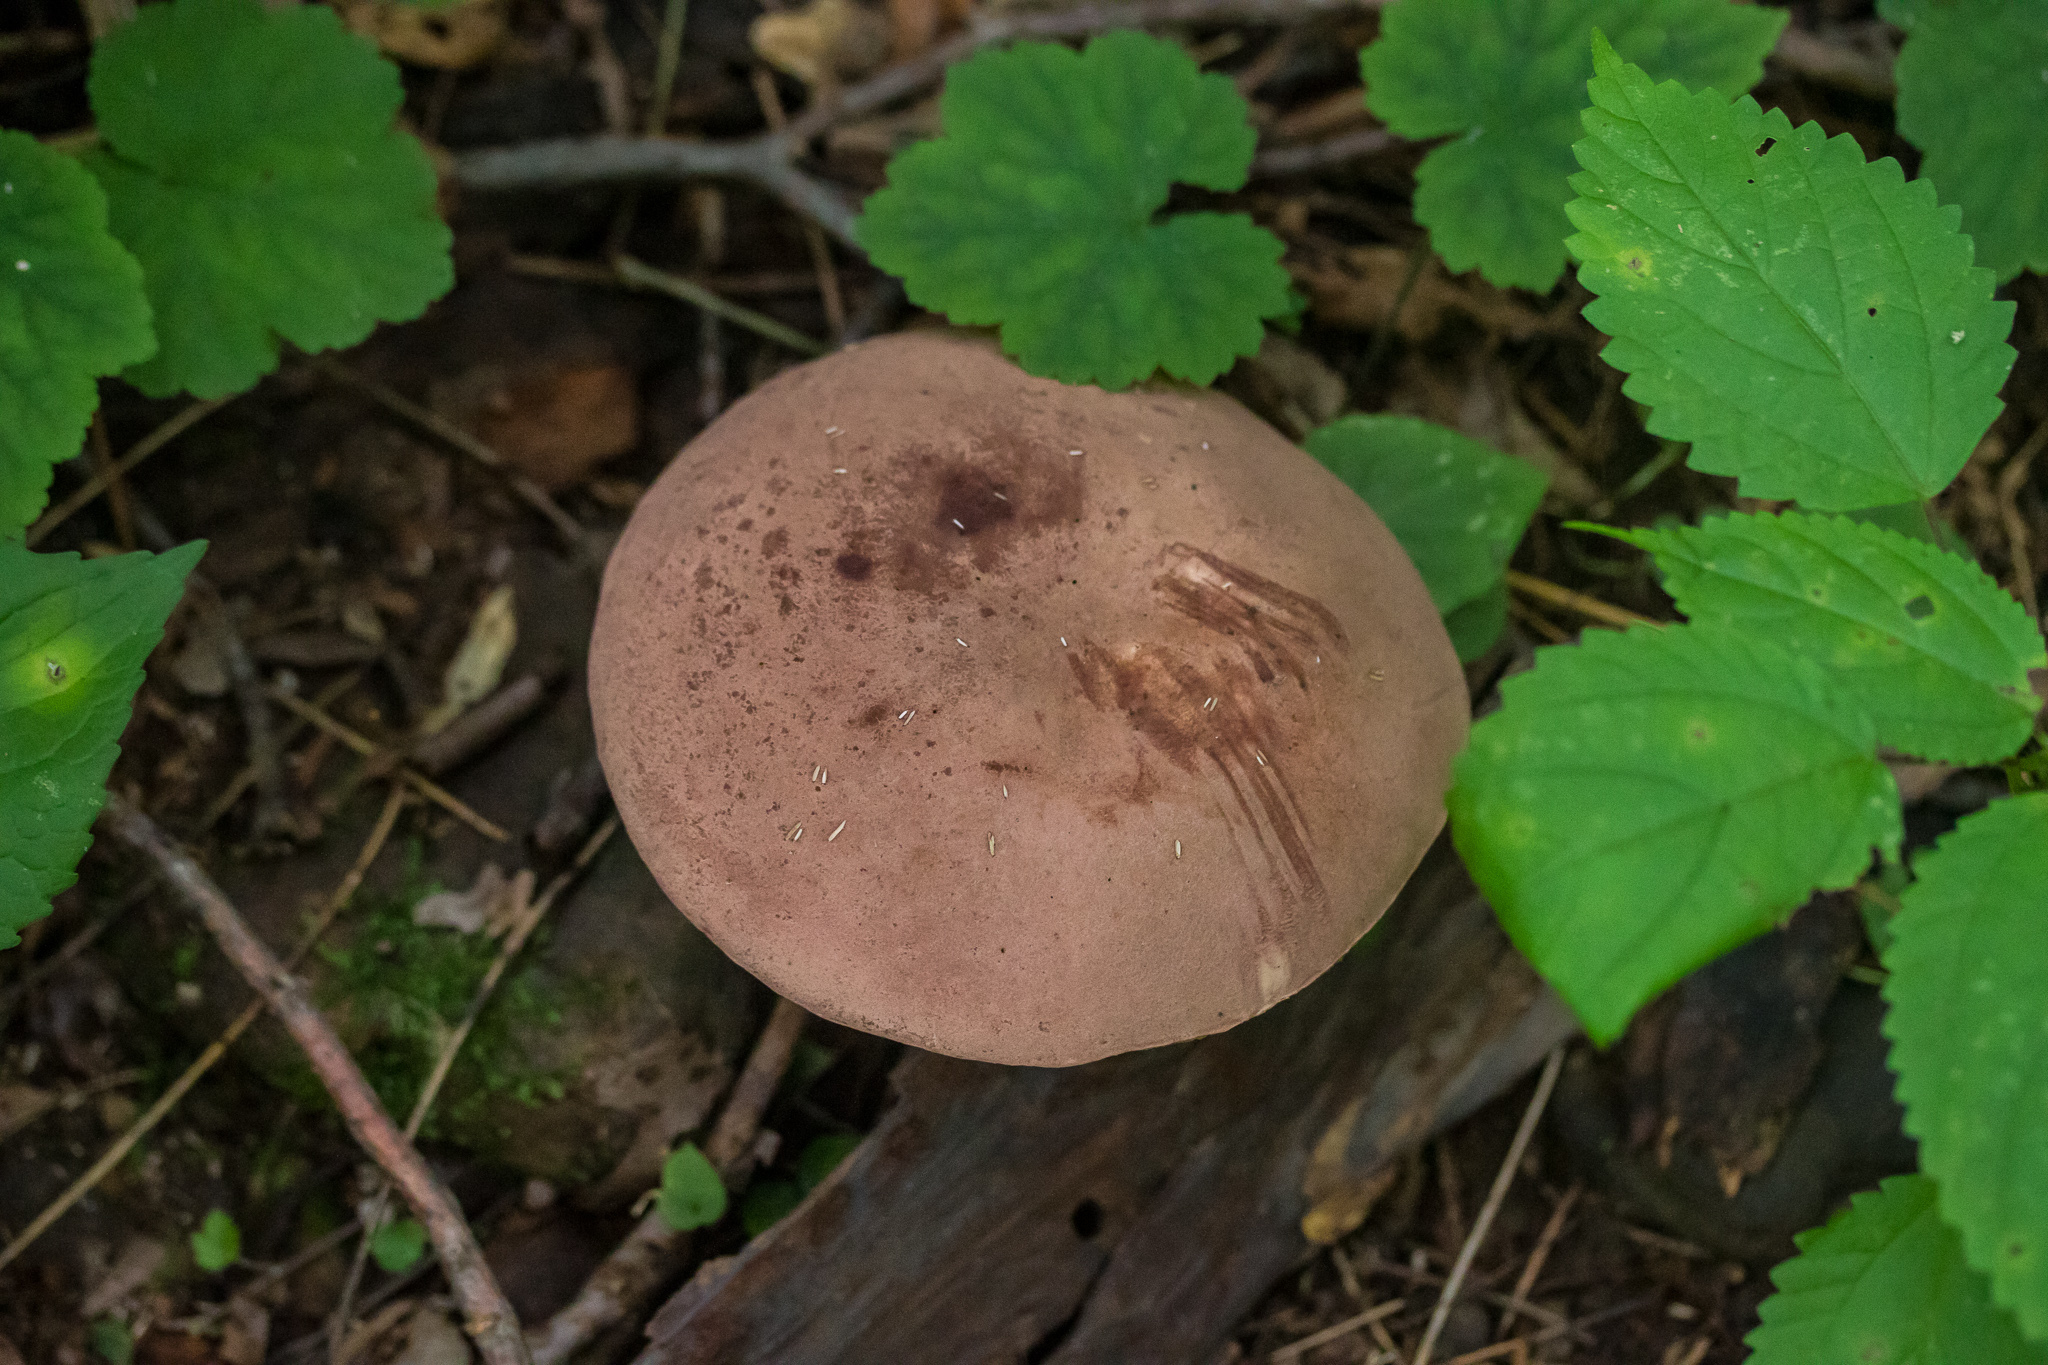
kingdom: Fungi
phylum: Basidiomycota
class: Agaricomycetes
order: Boletales
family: Boletaceae
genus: Tylopilus
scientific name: Tylopilus rubrobrunneus
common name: Reddish brown bitter bolete
